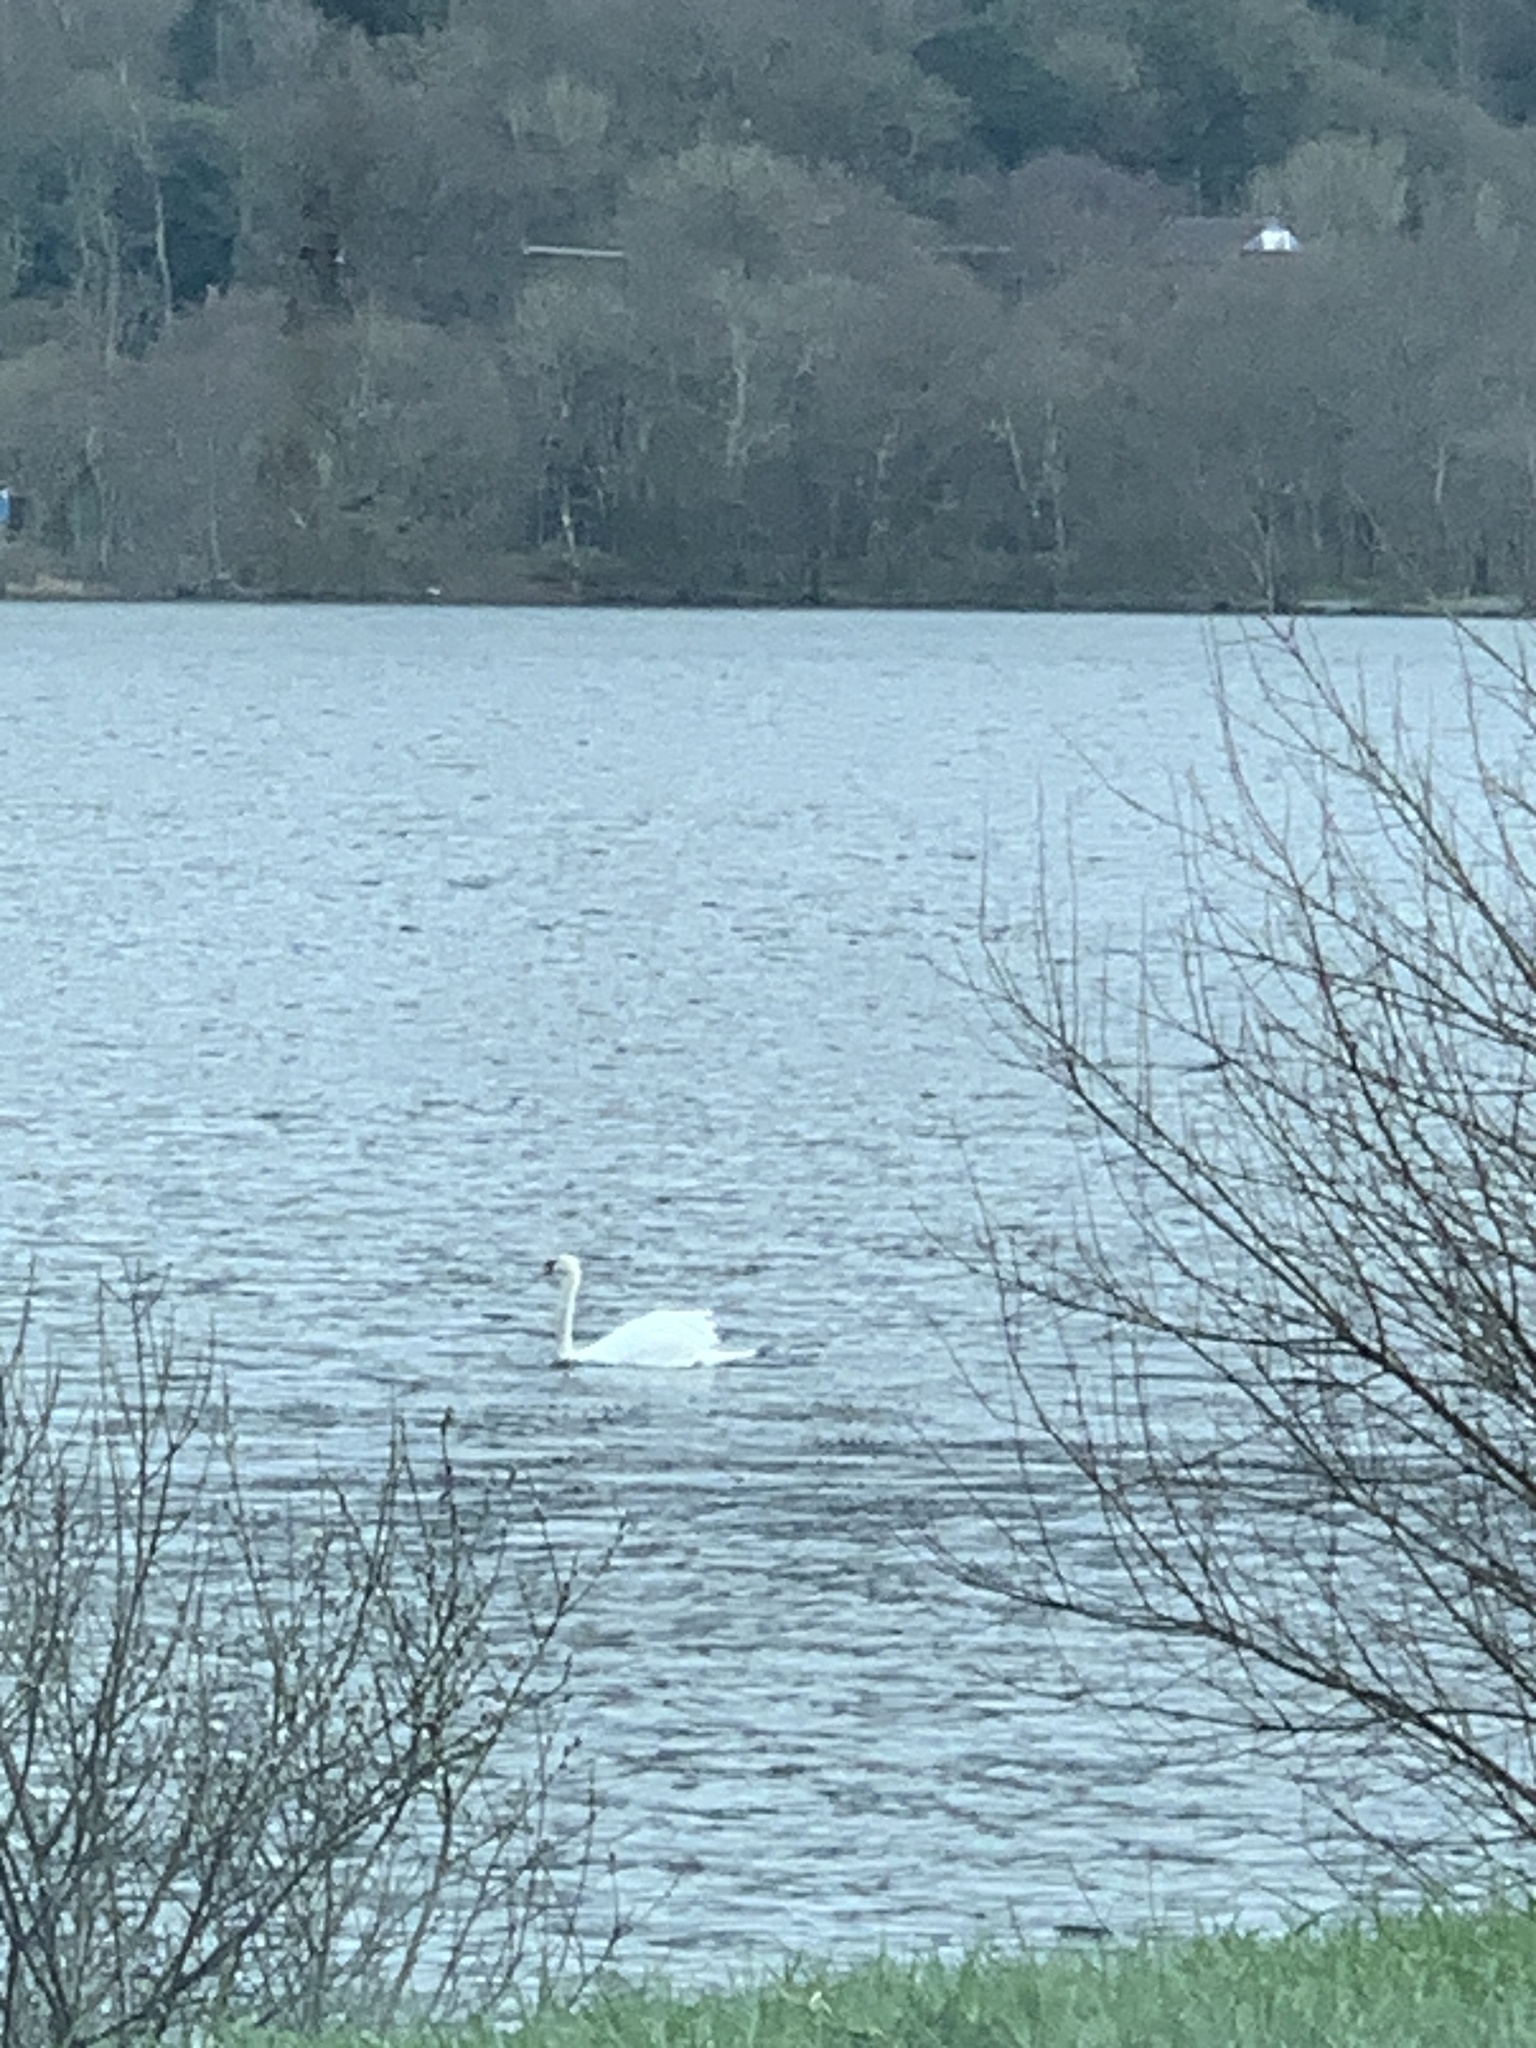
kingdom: Animalia
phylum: Chordata
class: Aves
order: Anseriformes
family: Anatidae
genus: Cygnus
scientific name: Cygnus olor
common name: Mute swan
